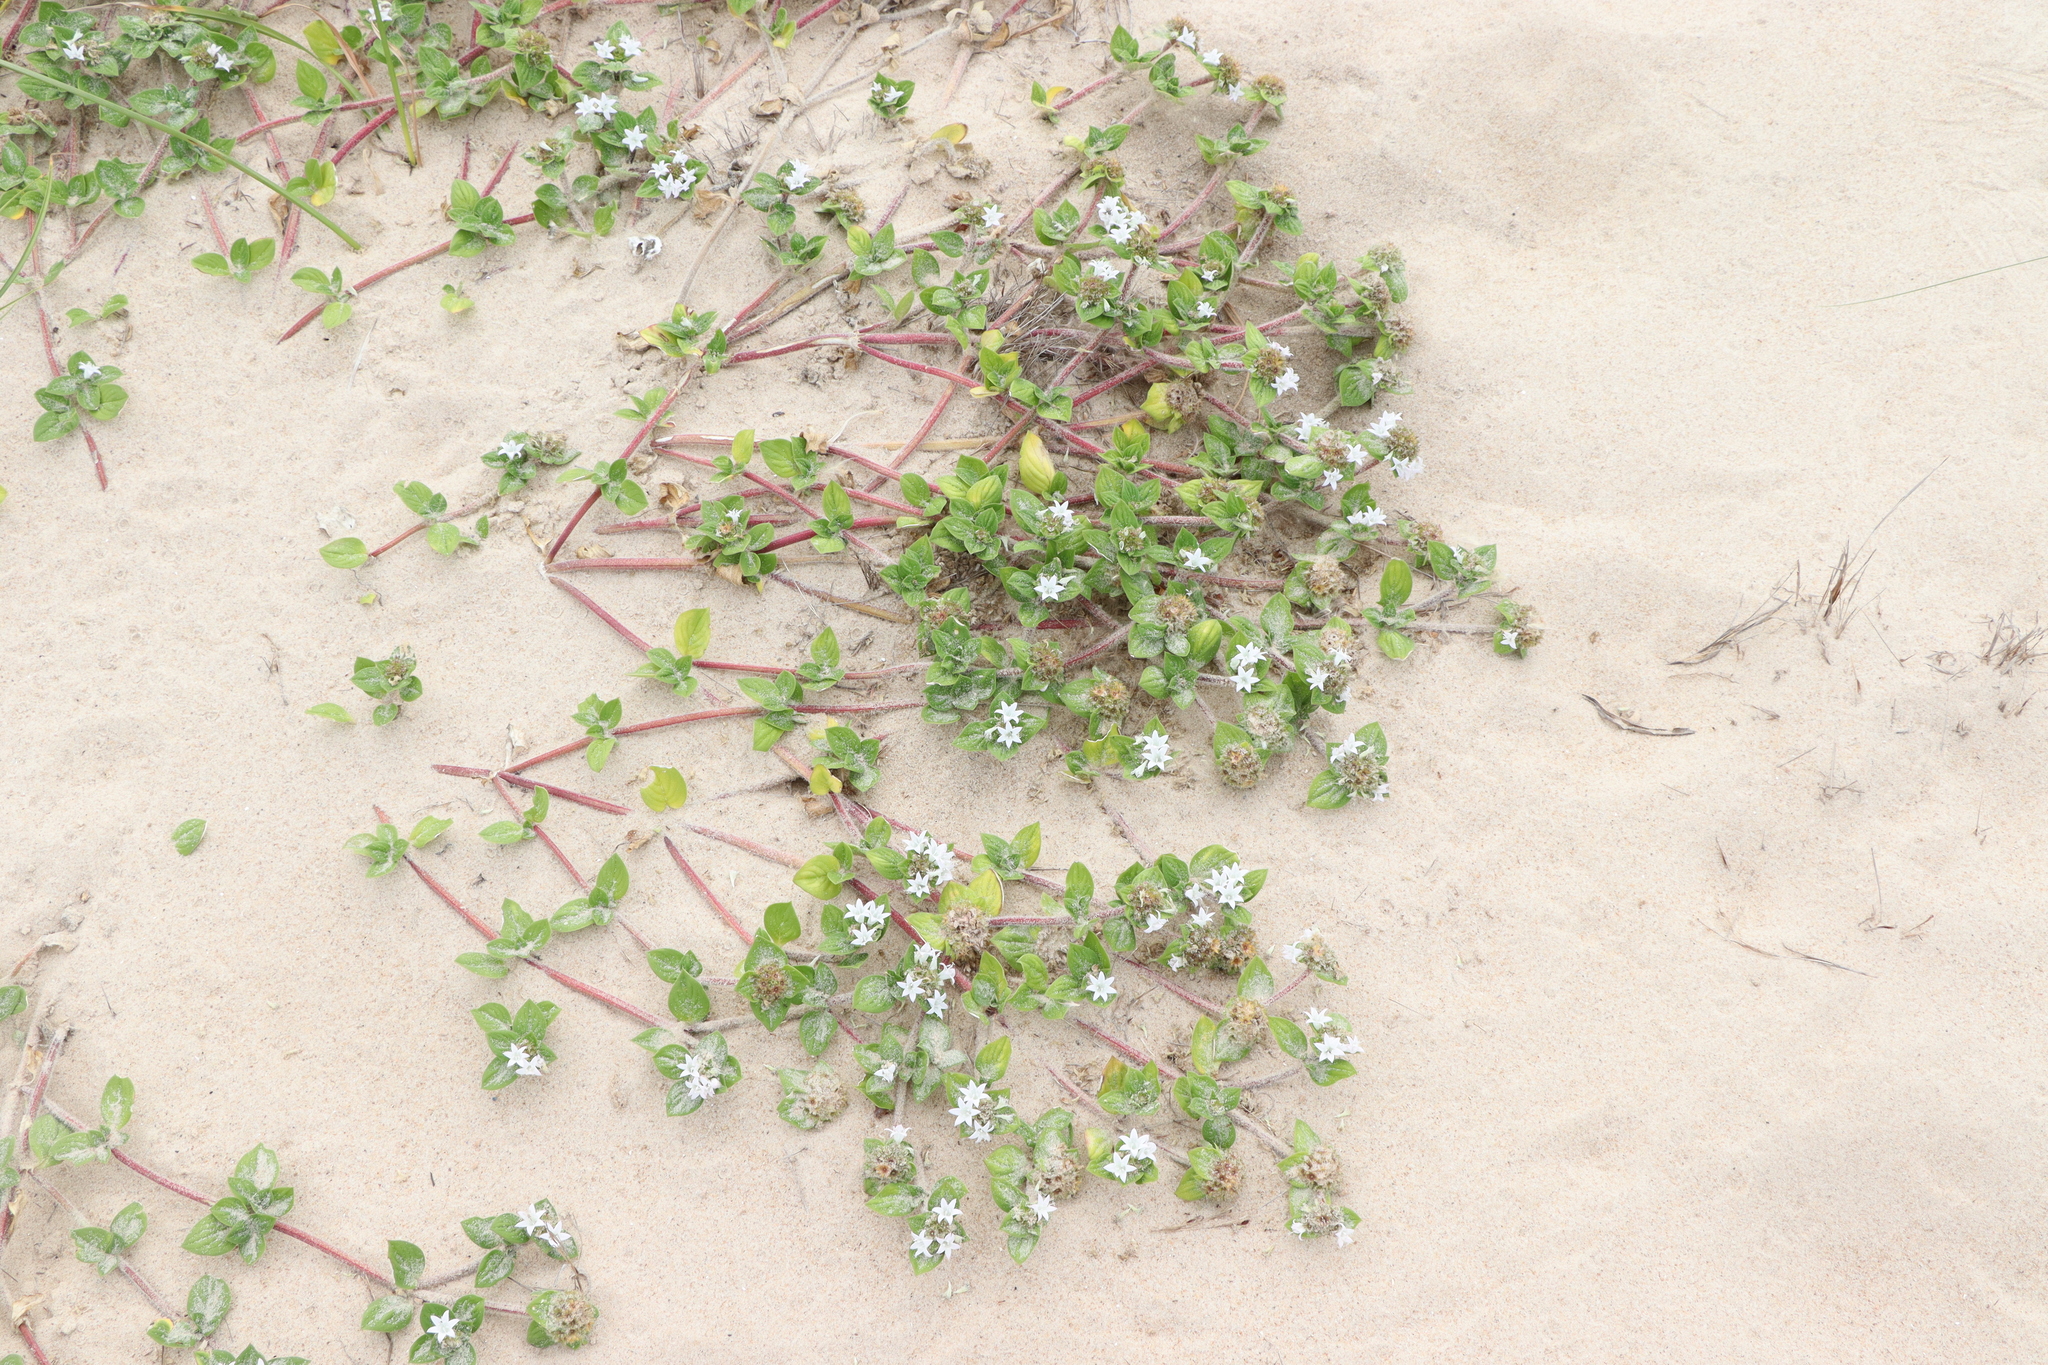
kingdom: Plantae
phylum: Tracheophyta
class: Magnoliopsida
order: Gentianales
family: Rubiaceae
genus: Richardia
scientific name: Richardia brasiliensis
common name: Tropical mexican clover
